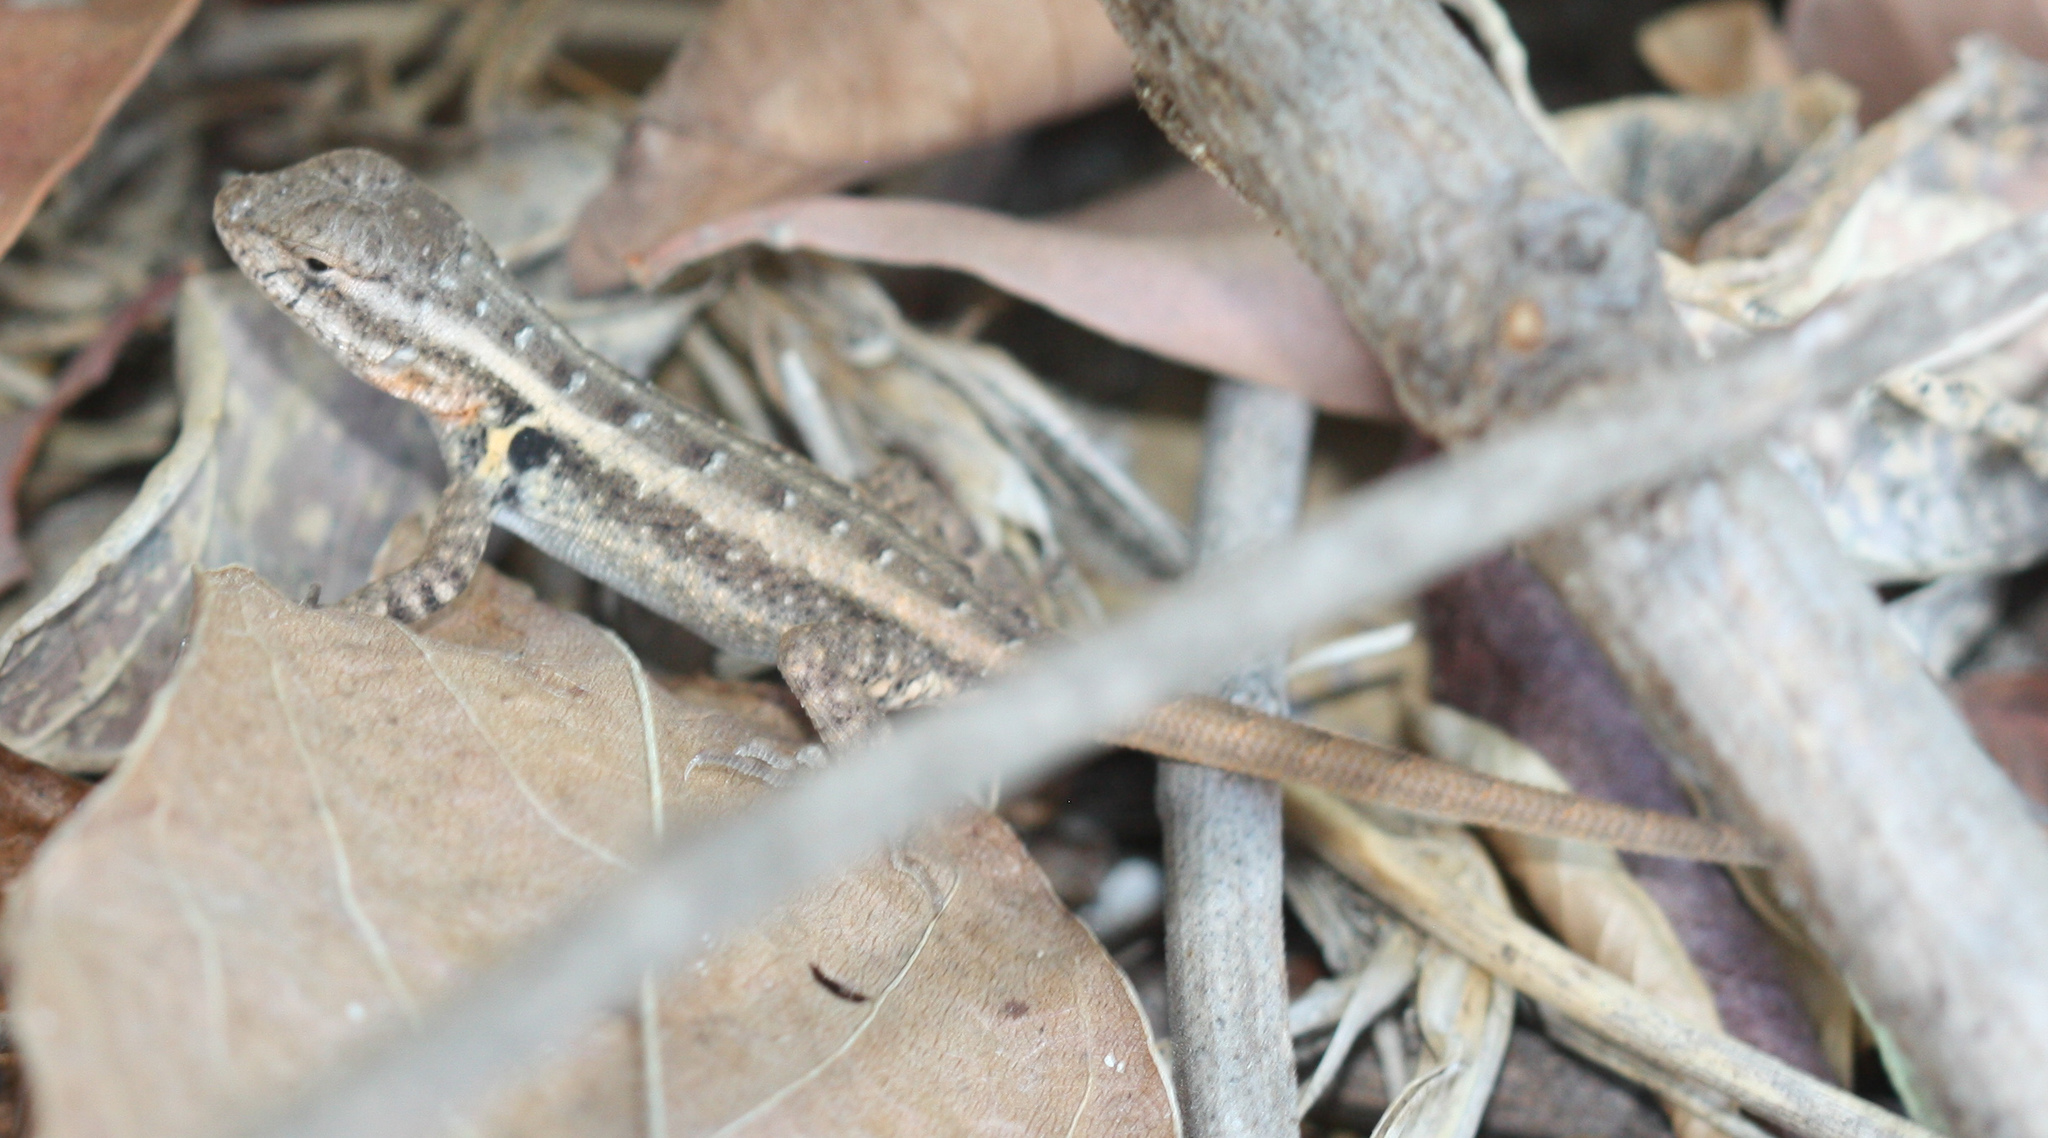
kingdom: Animalia
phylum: Chordata
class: Squamata
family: Phrynosomatidae
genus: Sceloporus
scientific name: Sceloporus variabilis
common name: Rosebelly lizard
